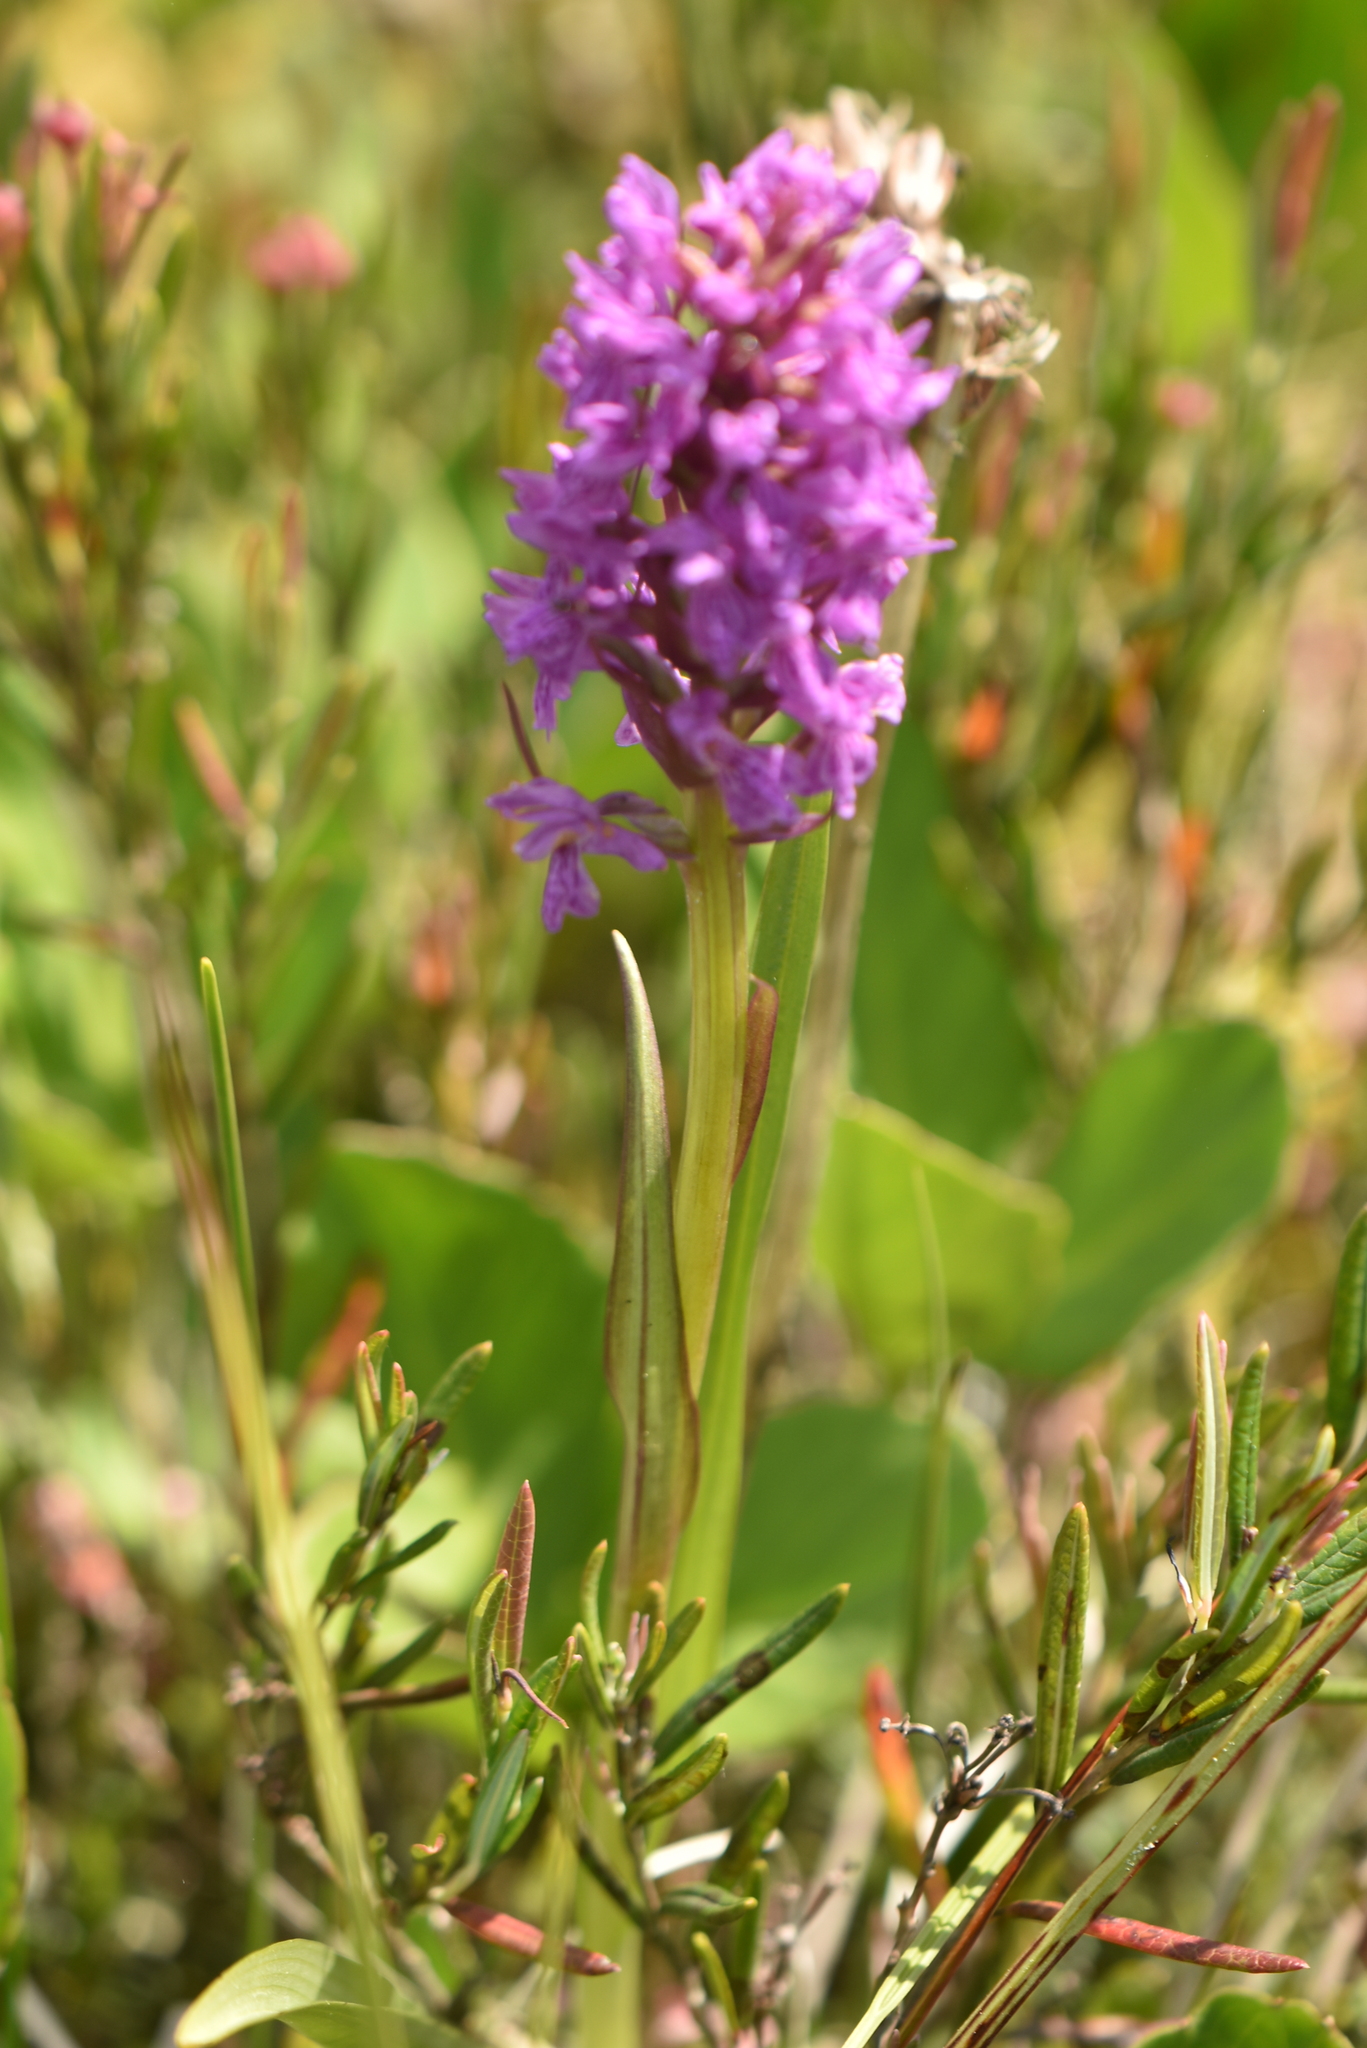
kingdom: Plantae
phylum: Tracheophyta
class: Liliopsida
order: Asparagales
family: Orchidaceae
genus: Dactylorhiza
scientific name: Dactylorhiza incarnata
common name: Early marsh-orchid
